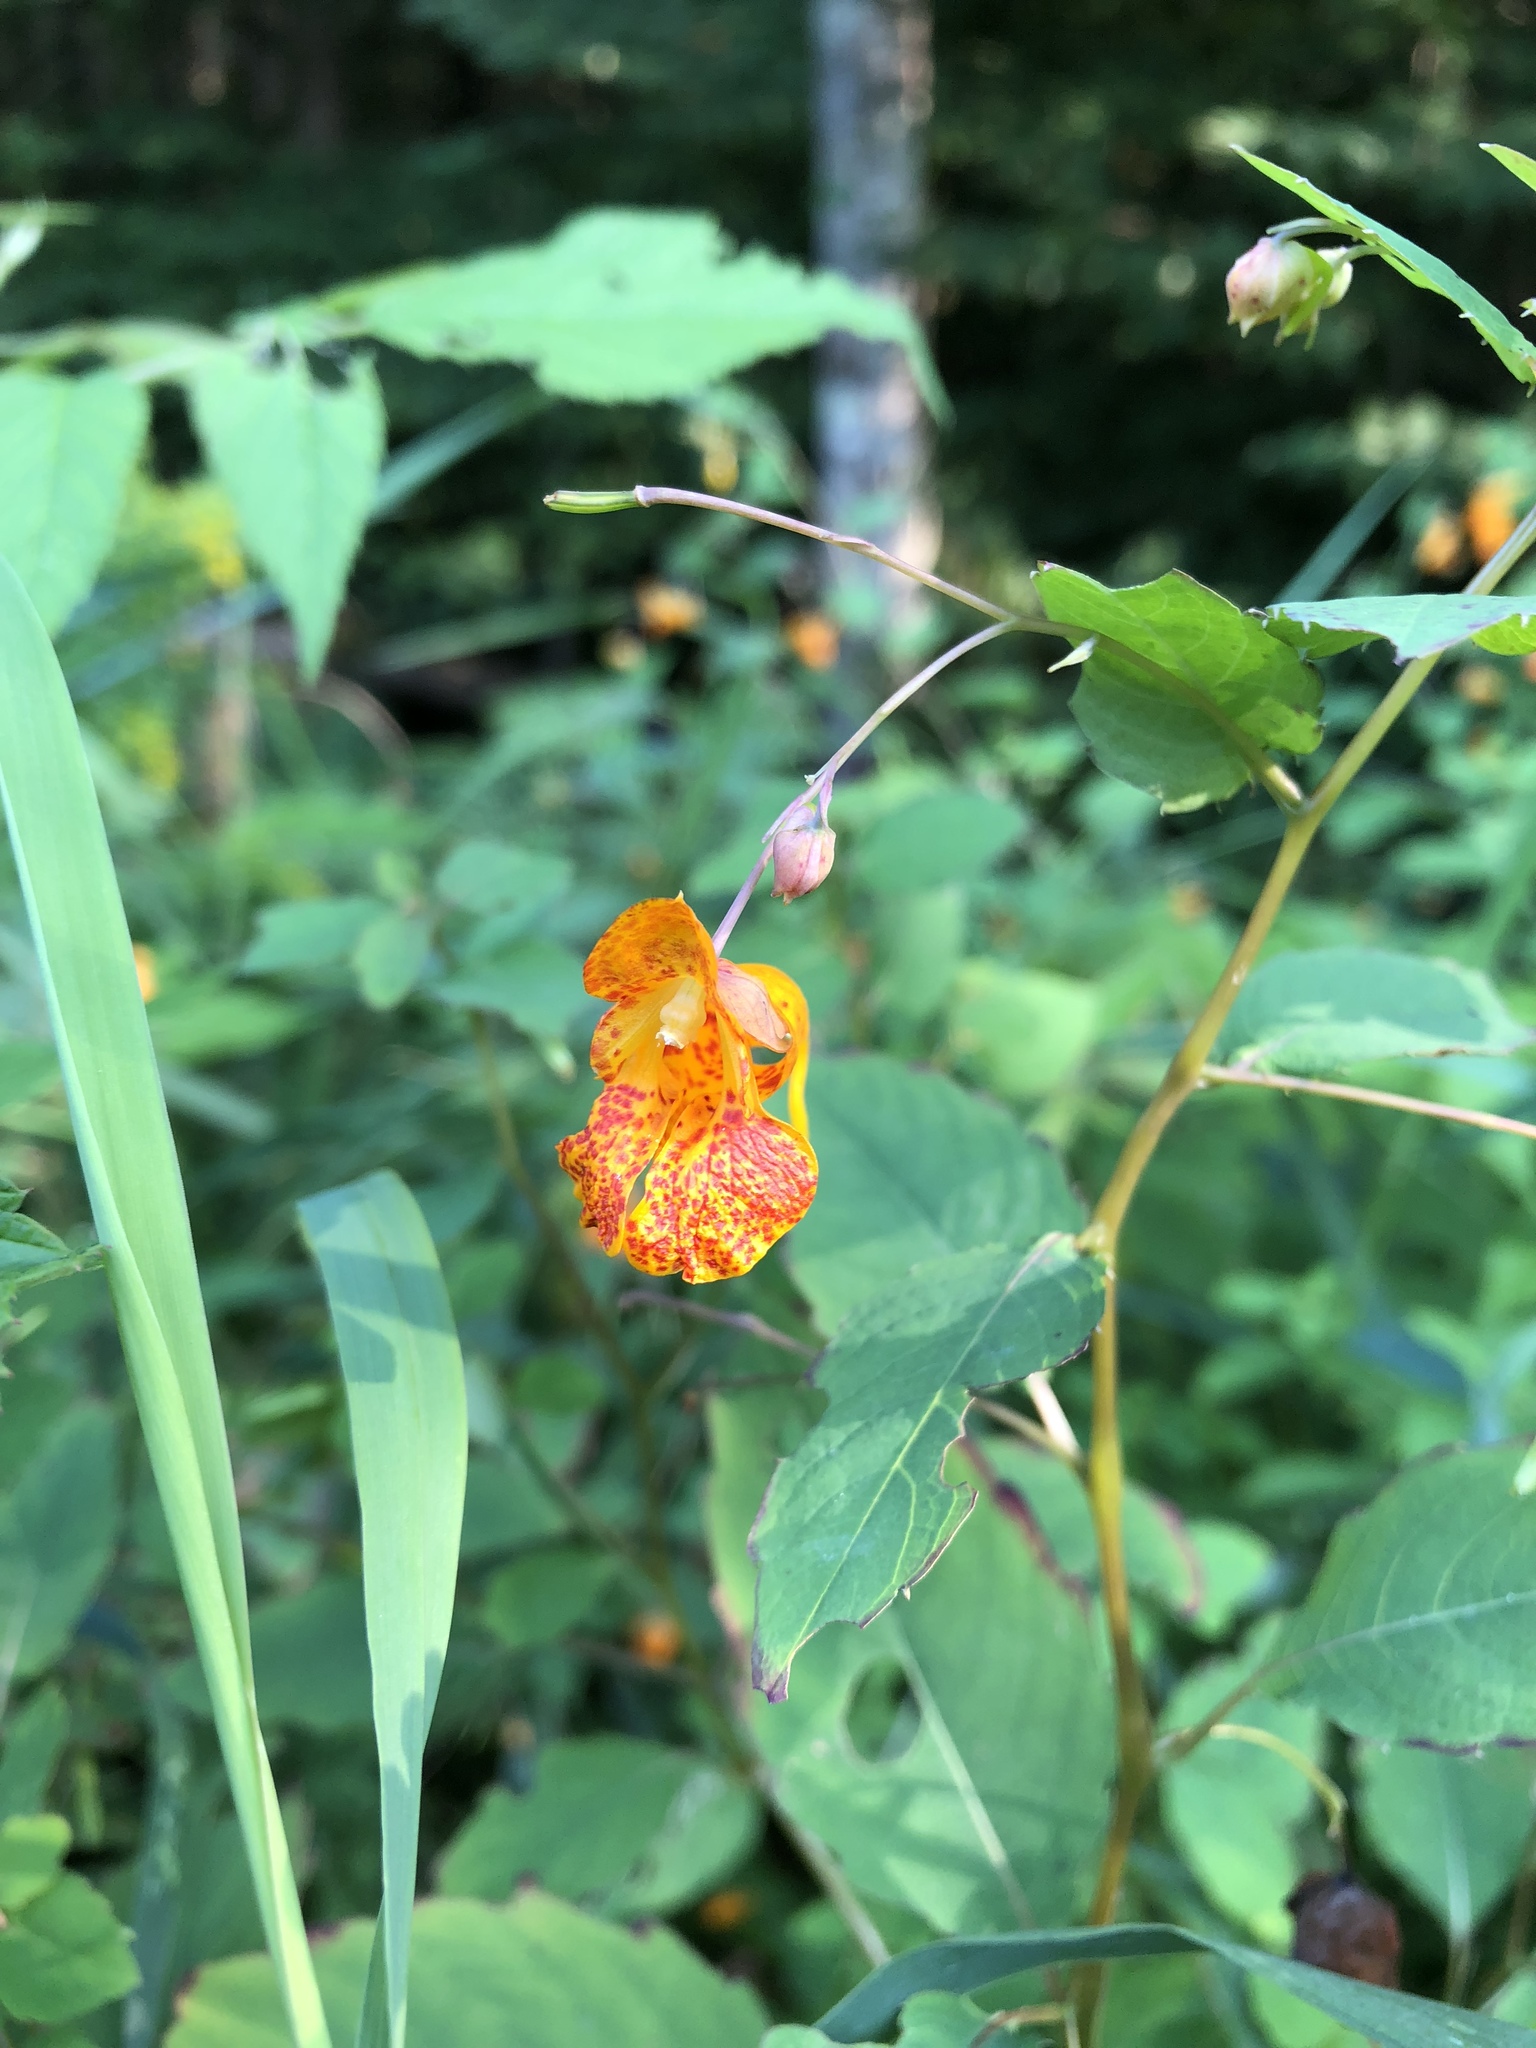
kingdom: Plantae
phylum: Tracheophyta
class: Magnoliopsida
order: Ericales
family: Balsaminaceae
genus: Impatiens
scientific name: Impatiens capensis
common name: Orange balsam
